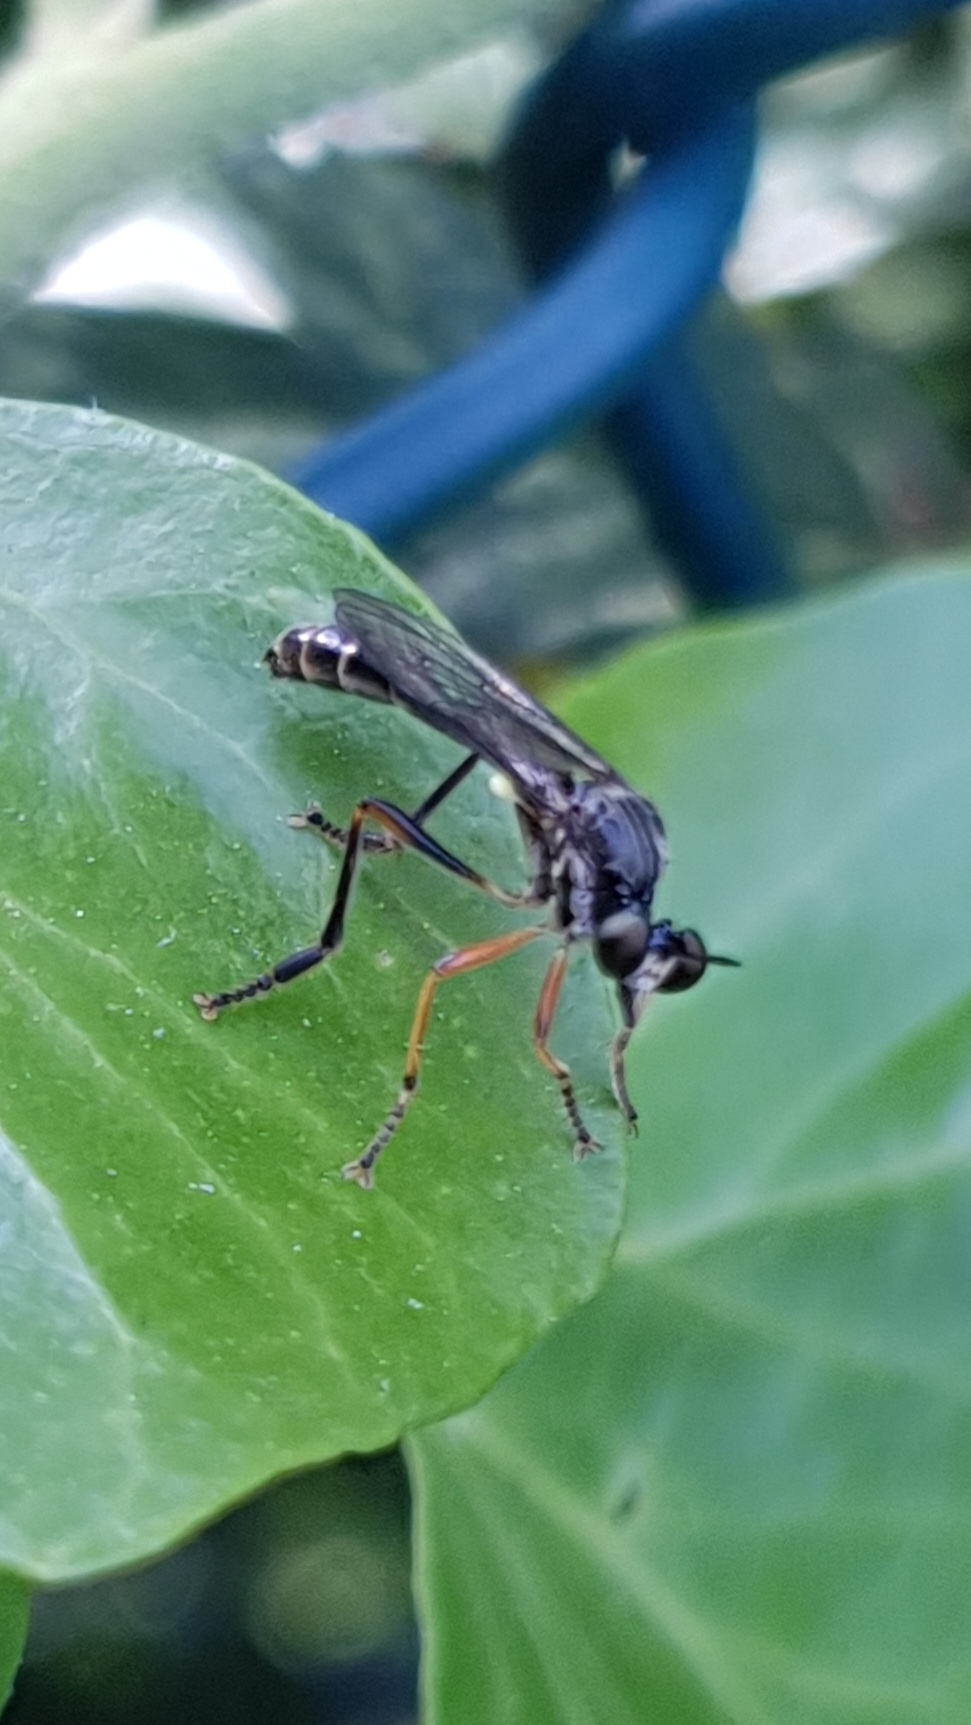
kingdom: Animalia
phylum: Arthropoda
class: Insecta
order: Diptera
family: Asilidae
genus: Dioctria
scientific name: Dioctria hyalipennis
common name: Stripe-legged robberfly
